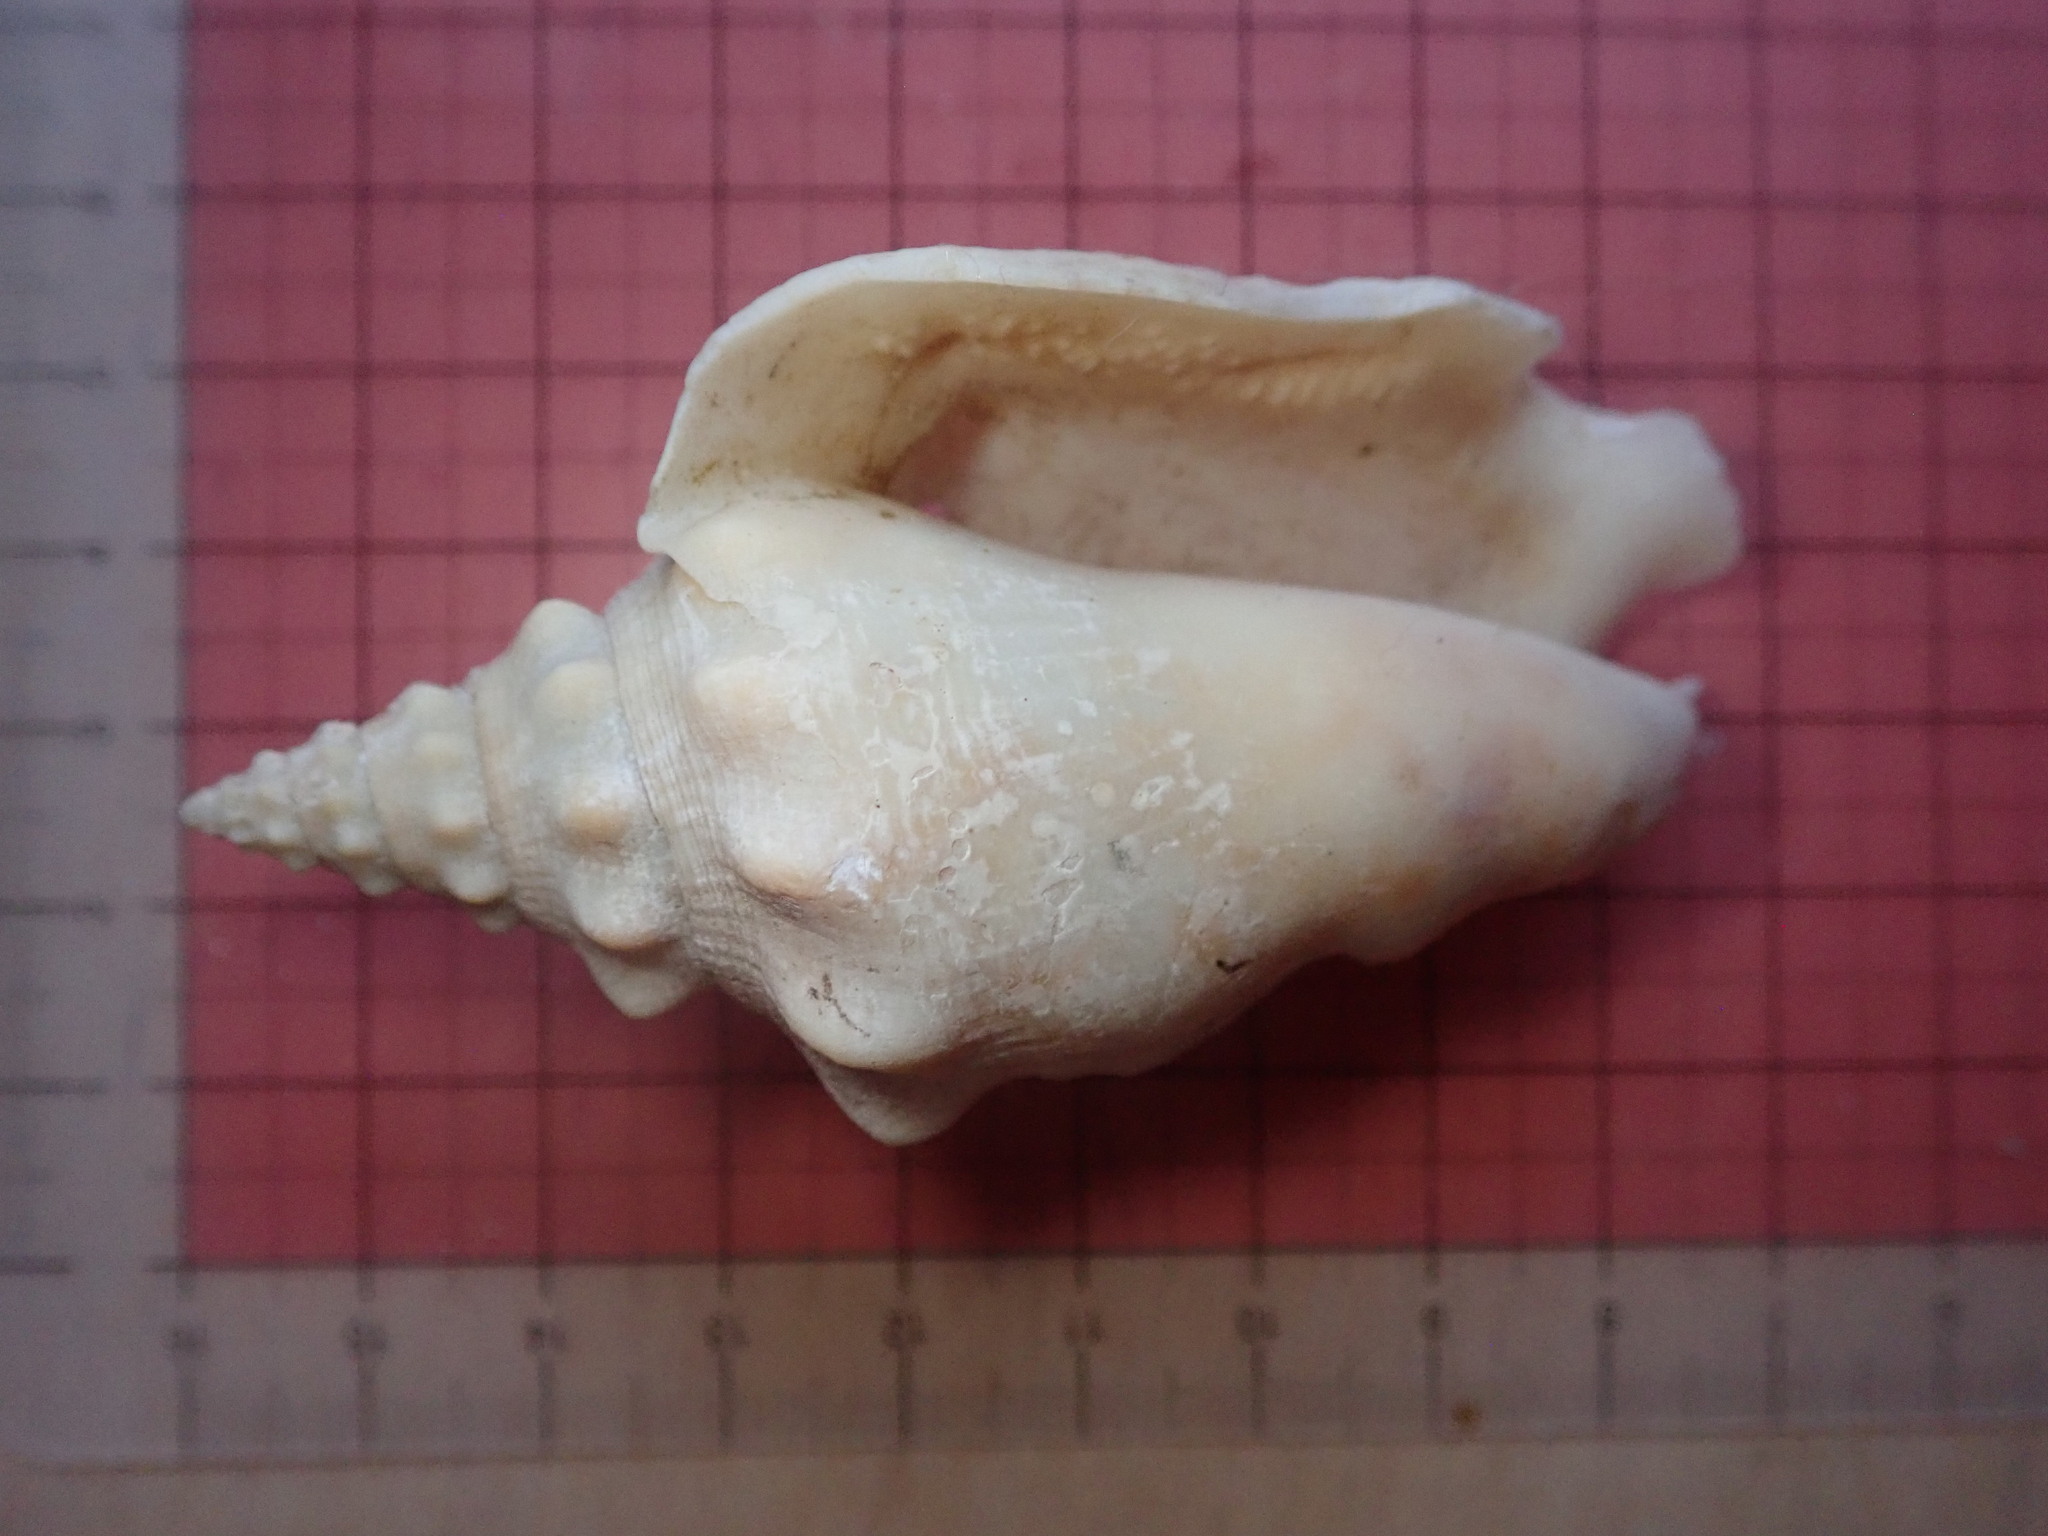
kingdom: Animalia
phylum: Mollusca
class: Gastropoda
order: Littorinimorpha
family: Strombidae
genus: Persististrombus
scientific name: Persististrombus granulatus
